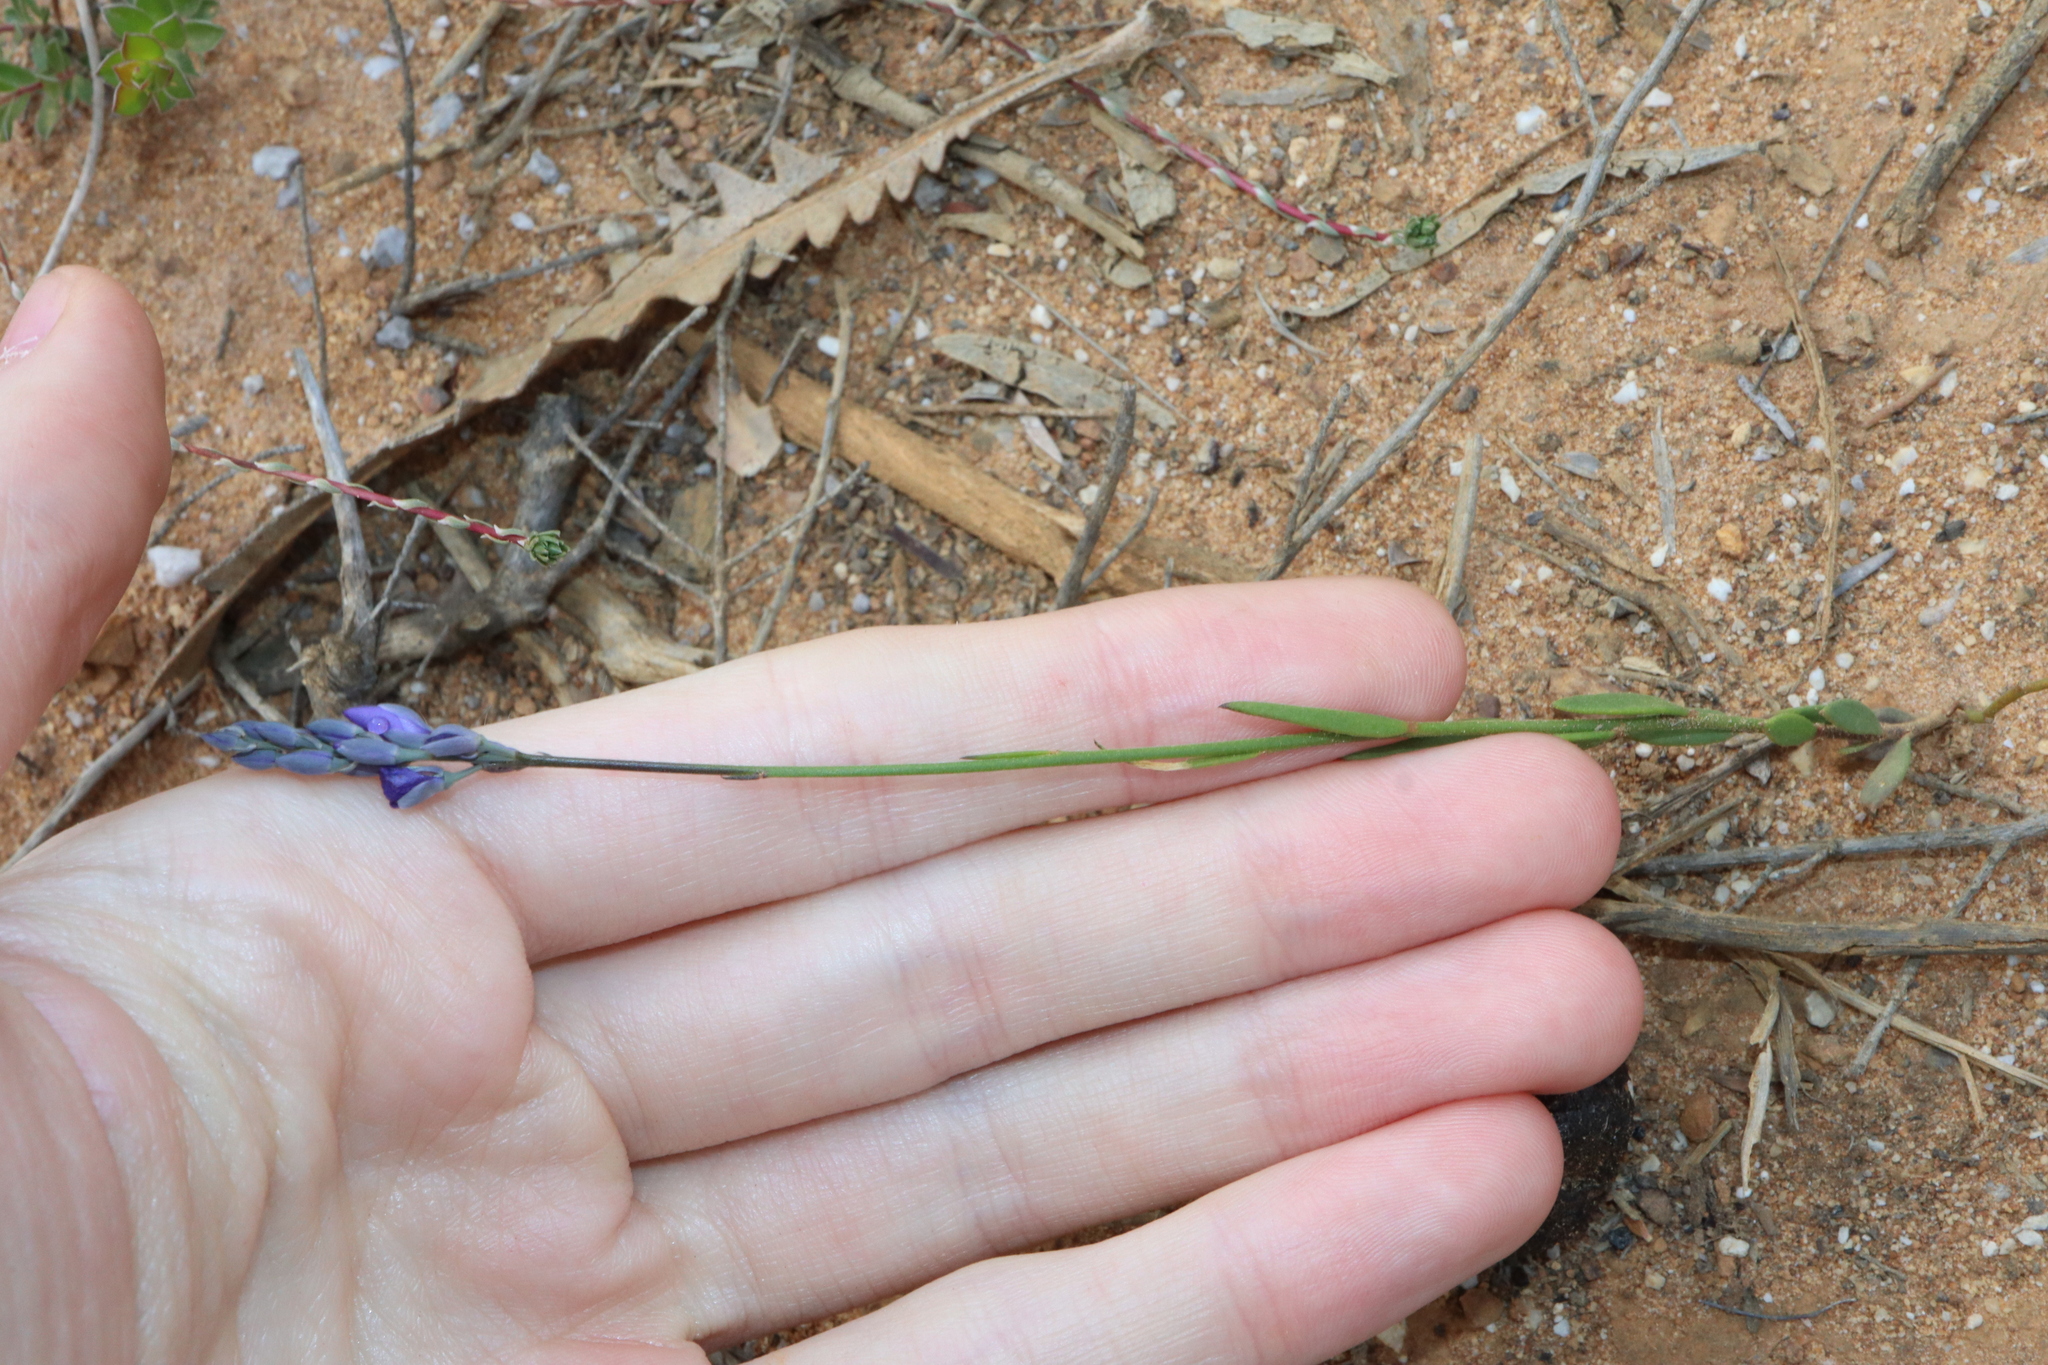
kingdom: Plantae
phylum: Tracheophyta
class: Magnoliopsida
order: Fabales
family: Polygalaceae
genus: Comesperma
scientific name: Comesperma calymega
